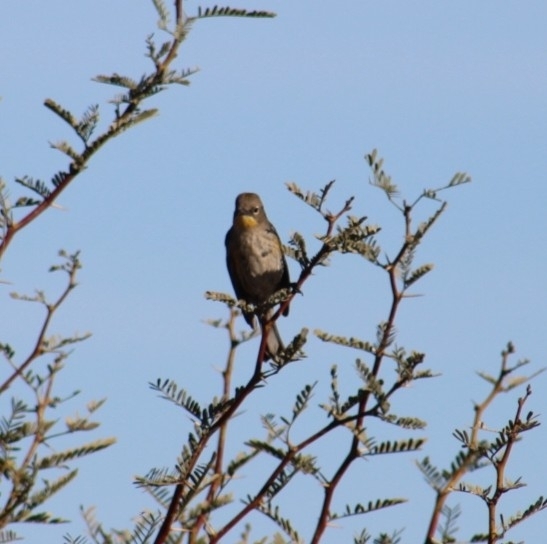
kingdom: Animalia
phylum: Chordata
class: Aves
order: Passeriformes
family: Parulidae
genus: Setophaga
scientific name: Setophaga coronata
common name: Myrtle warbler
